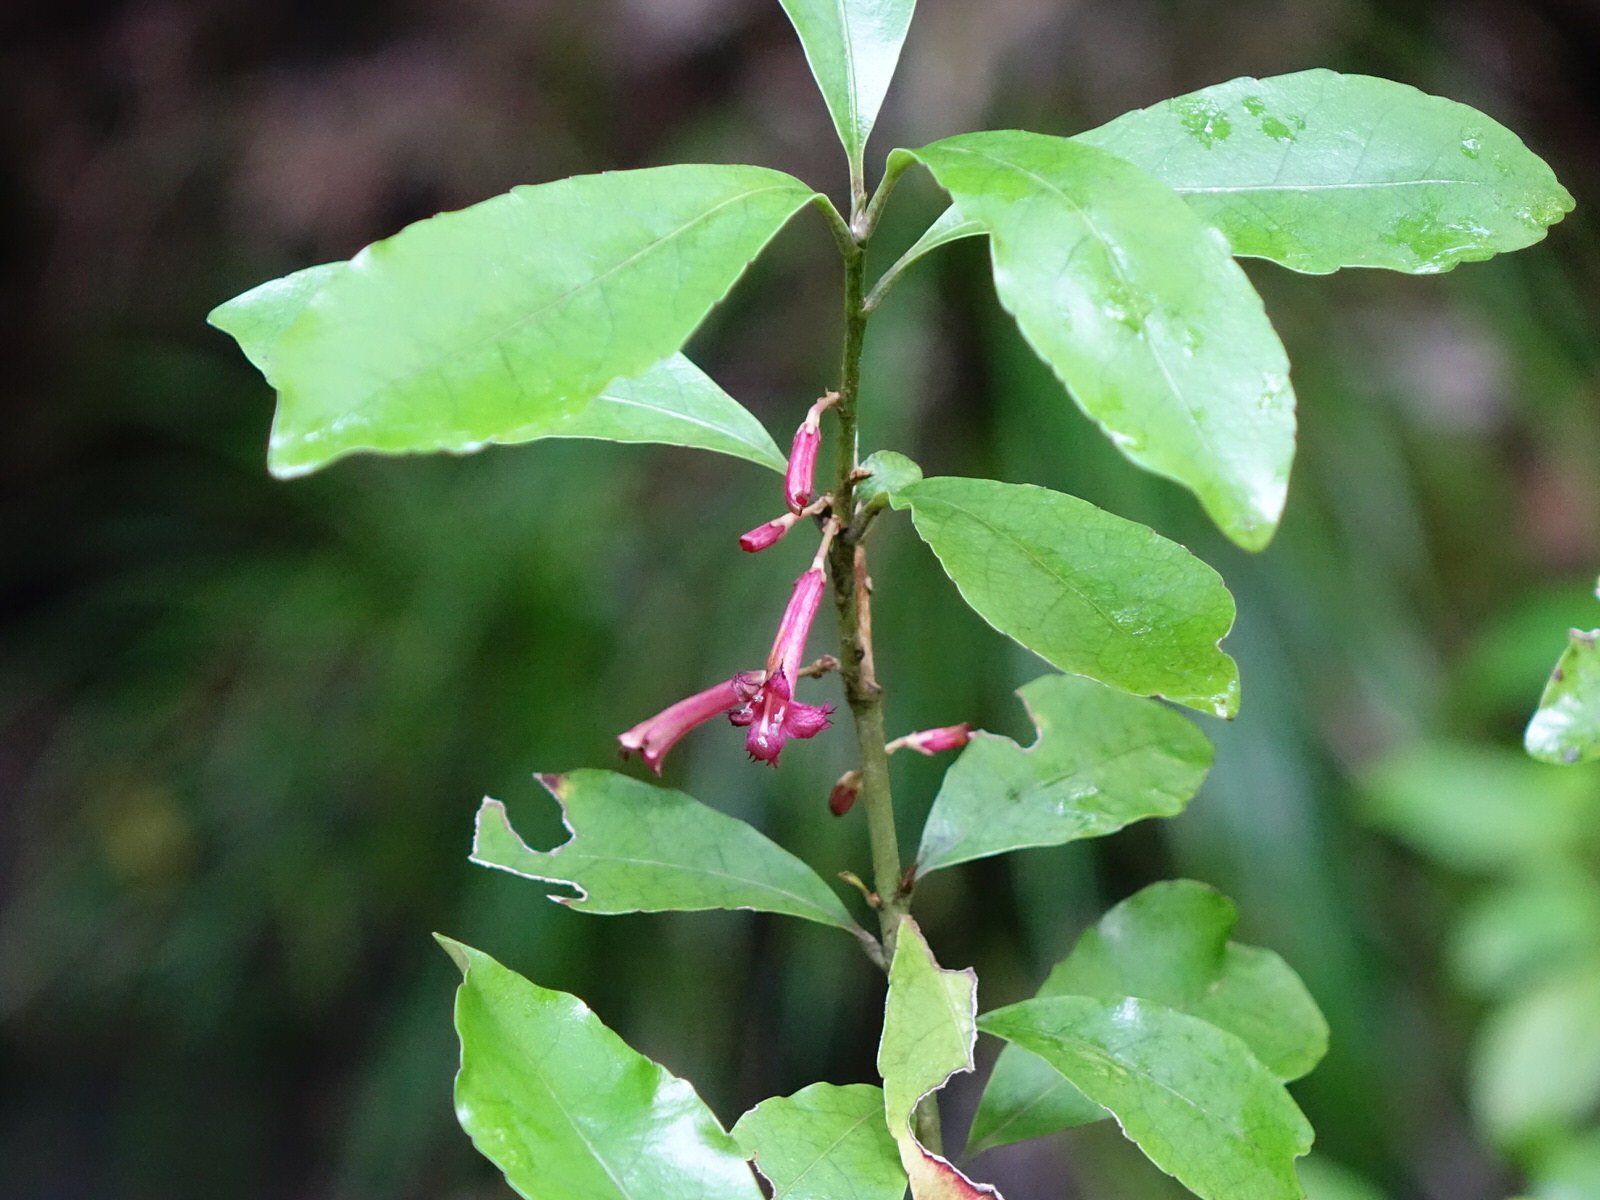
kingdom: Plantae
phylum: Tracheophyta
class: Magnoliopsida
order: Asterales
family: Alseuosmiaceae
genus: Alseuosmia
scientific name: Alseuosmia macrophylla
